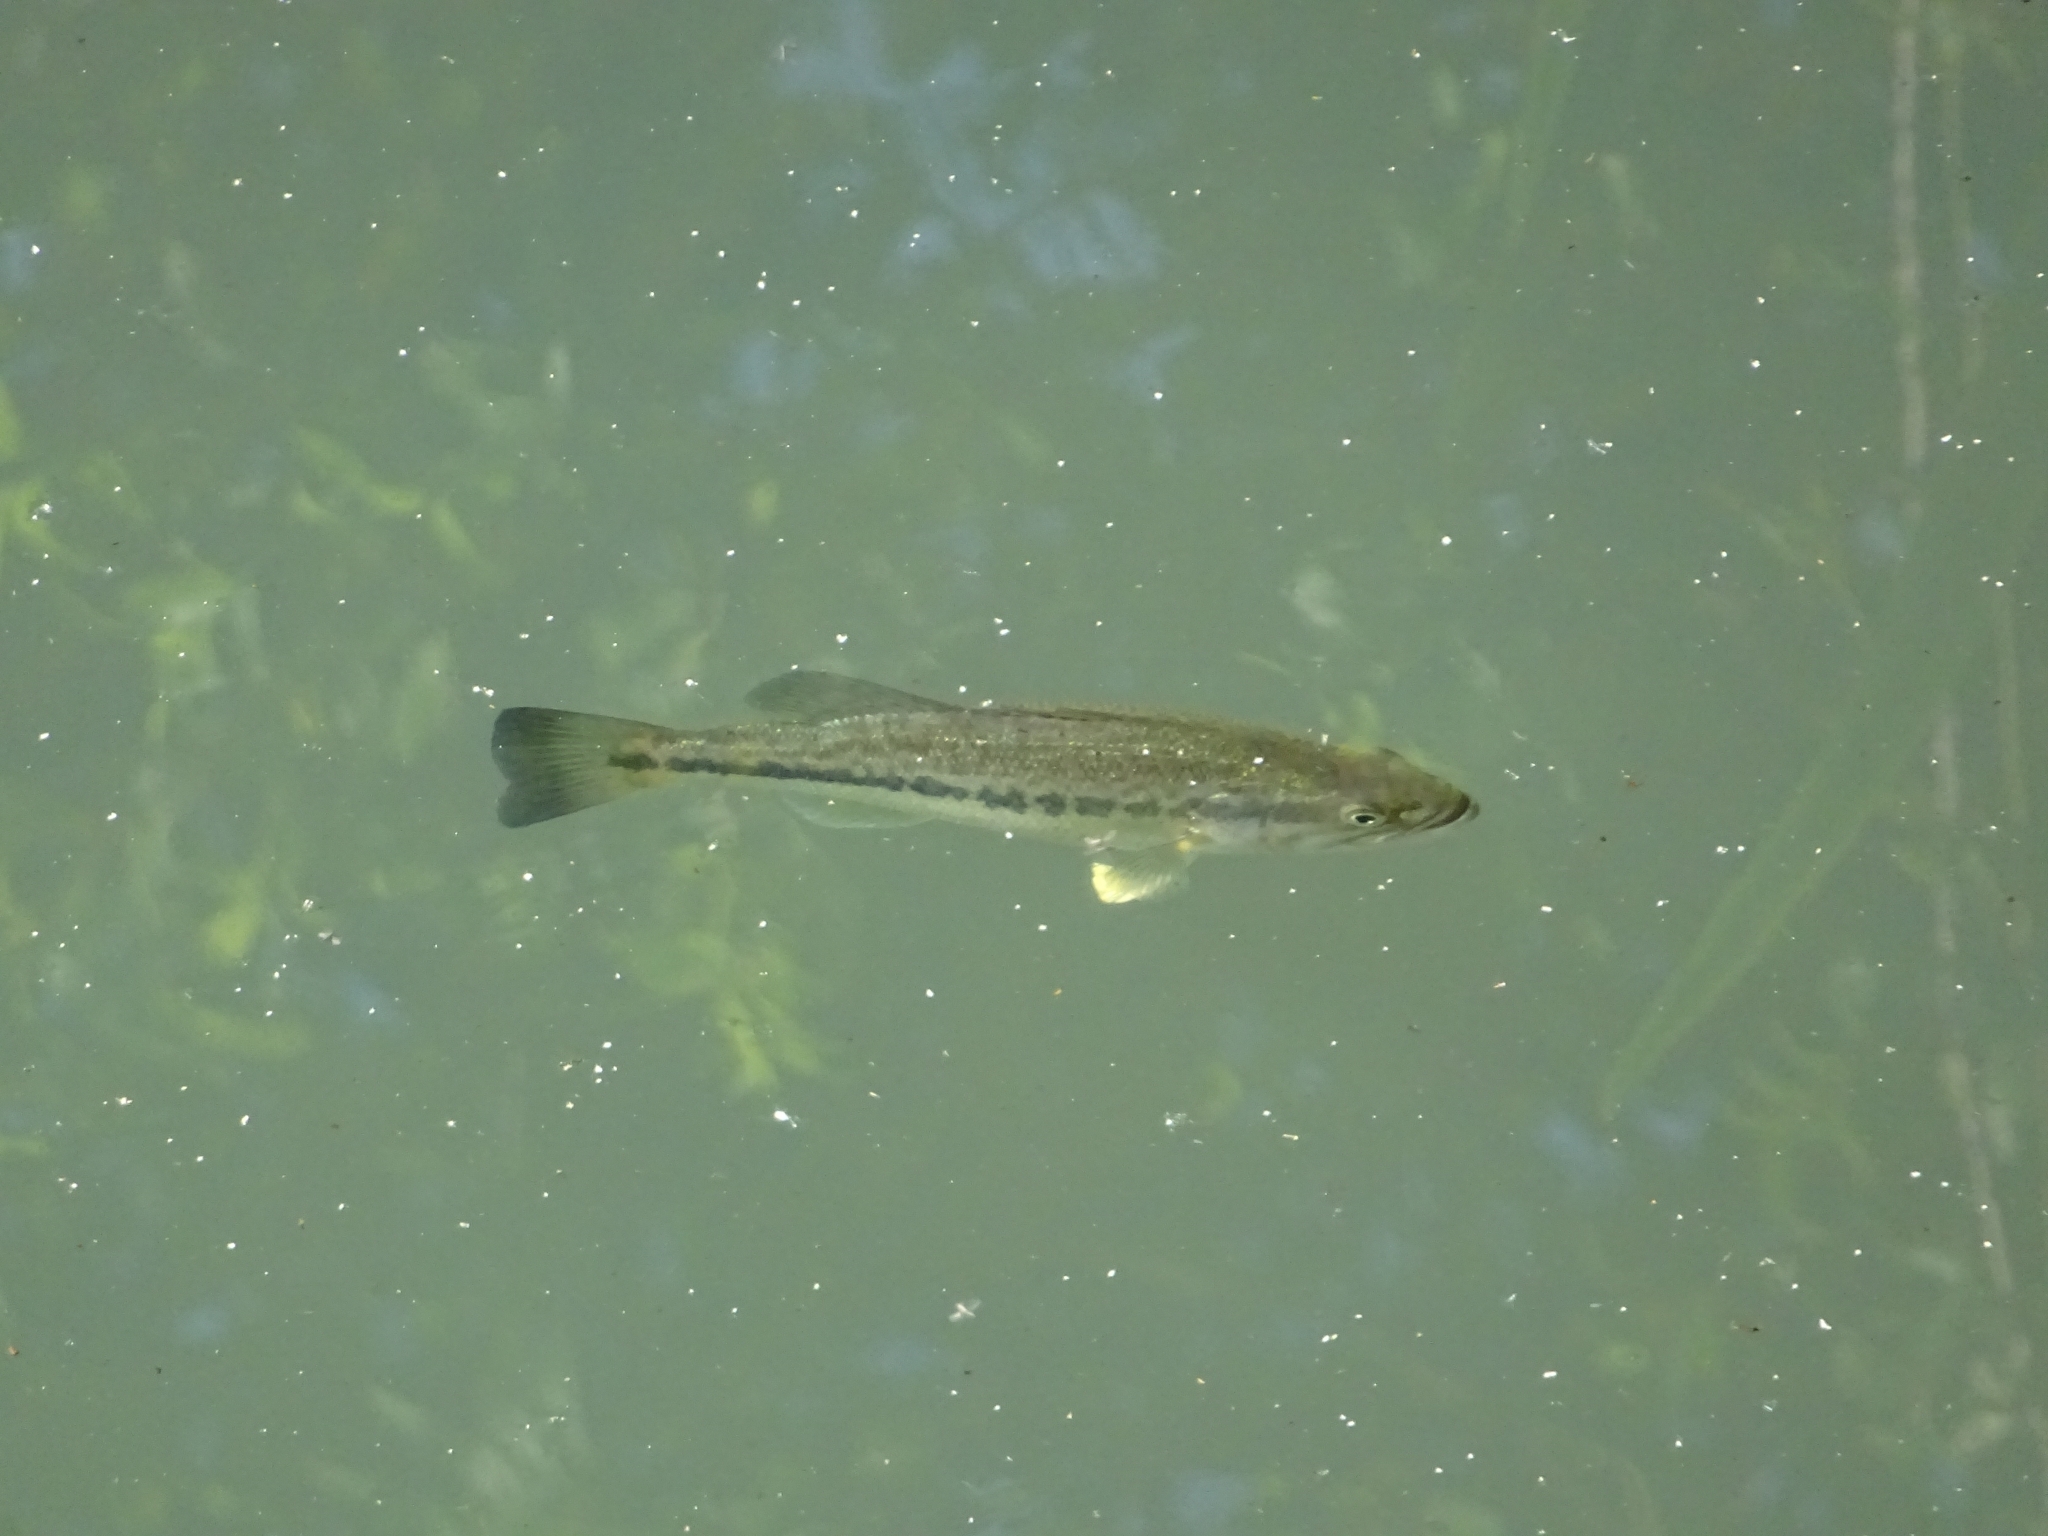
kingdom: Animalia
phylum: Chordata
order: Perciformes
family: Centrarchidae
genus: Micropterus
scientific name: Micropterus
